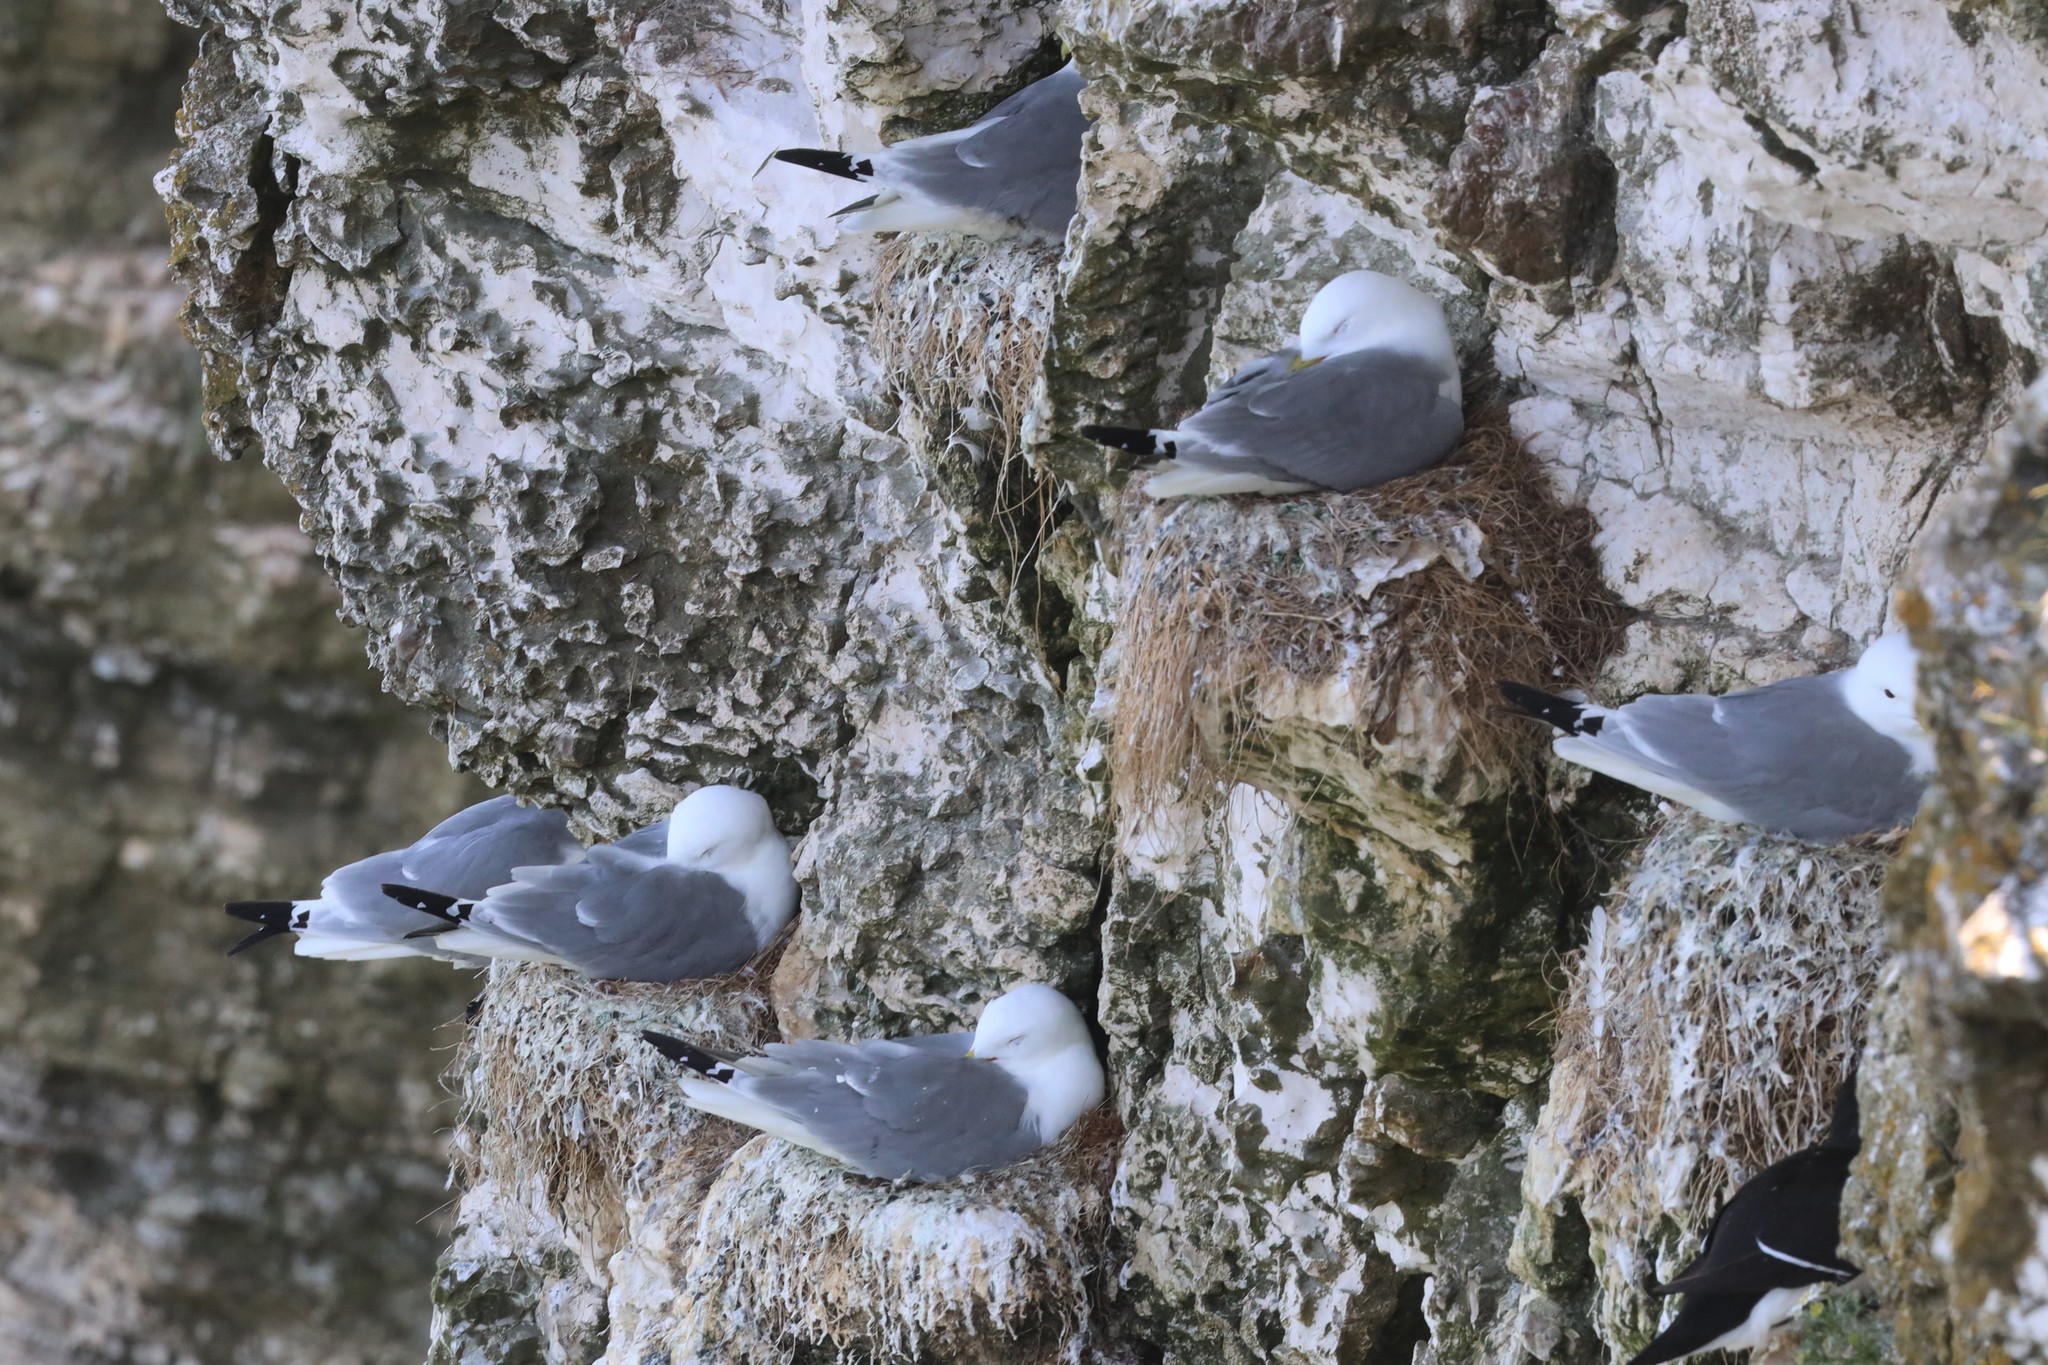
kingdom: Animalia
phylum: Chordata
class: Aves
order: Charadriiformes
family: Laridae
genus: Rissa
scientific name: Rissa tridactyla
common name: Black-legged kittiwake
